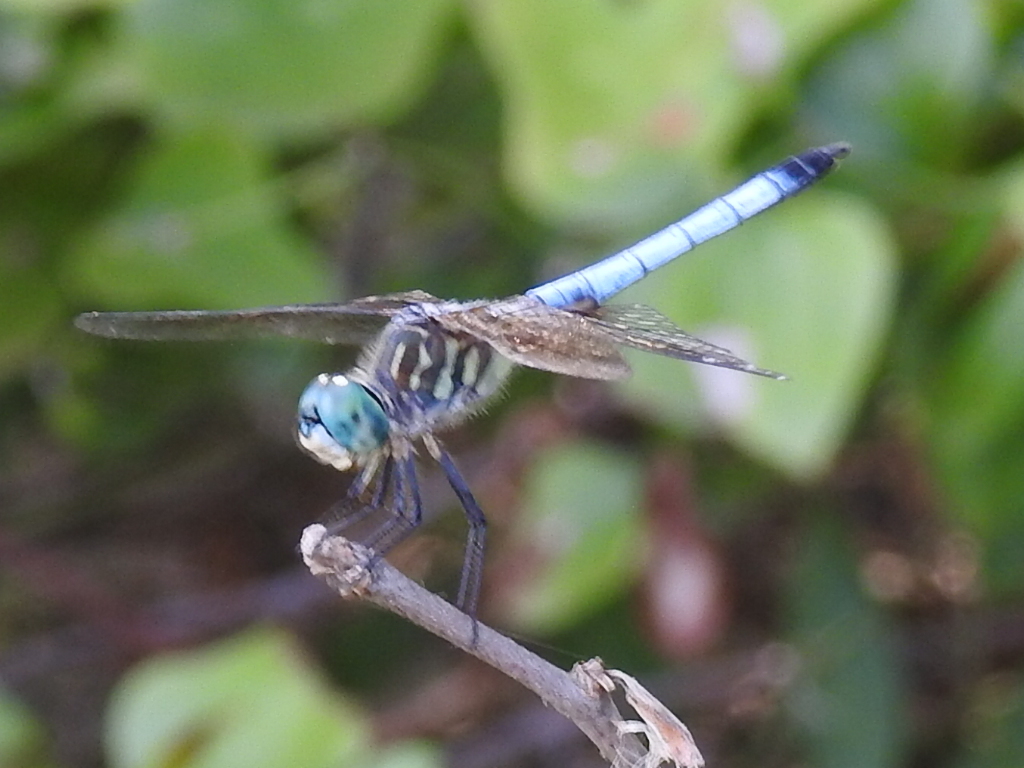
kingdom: Animalia
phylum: Arthropoda
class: Insecta
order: Odonata
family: Libellulidae
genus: Pachydiplax
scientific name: Pachydiplax longipennis
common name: Blue dasher
